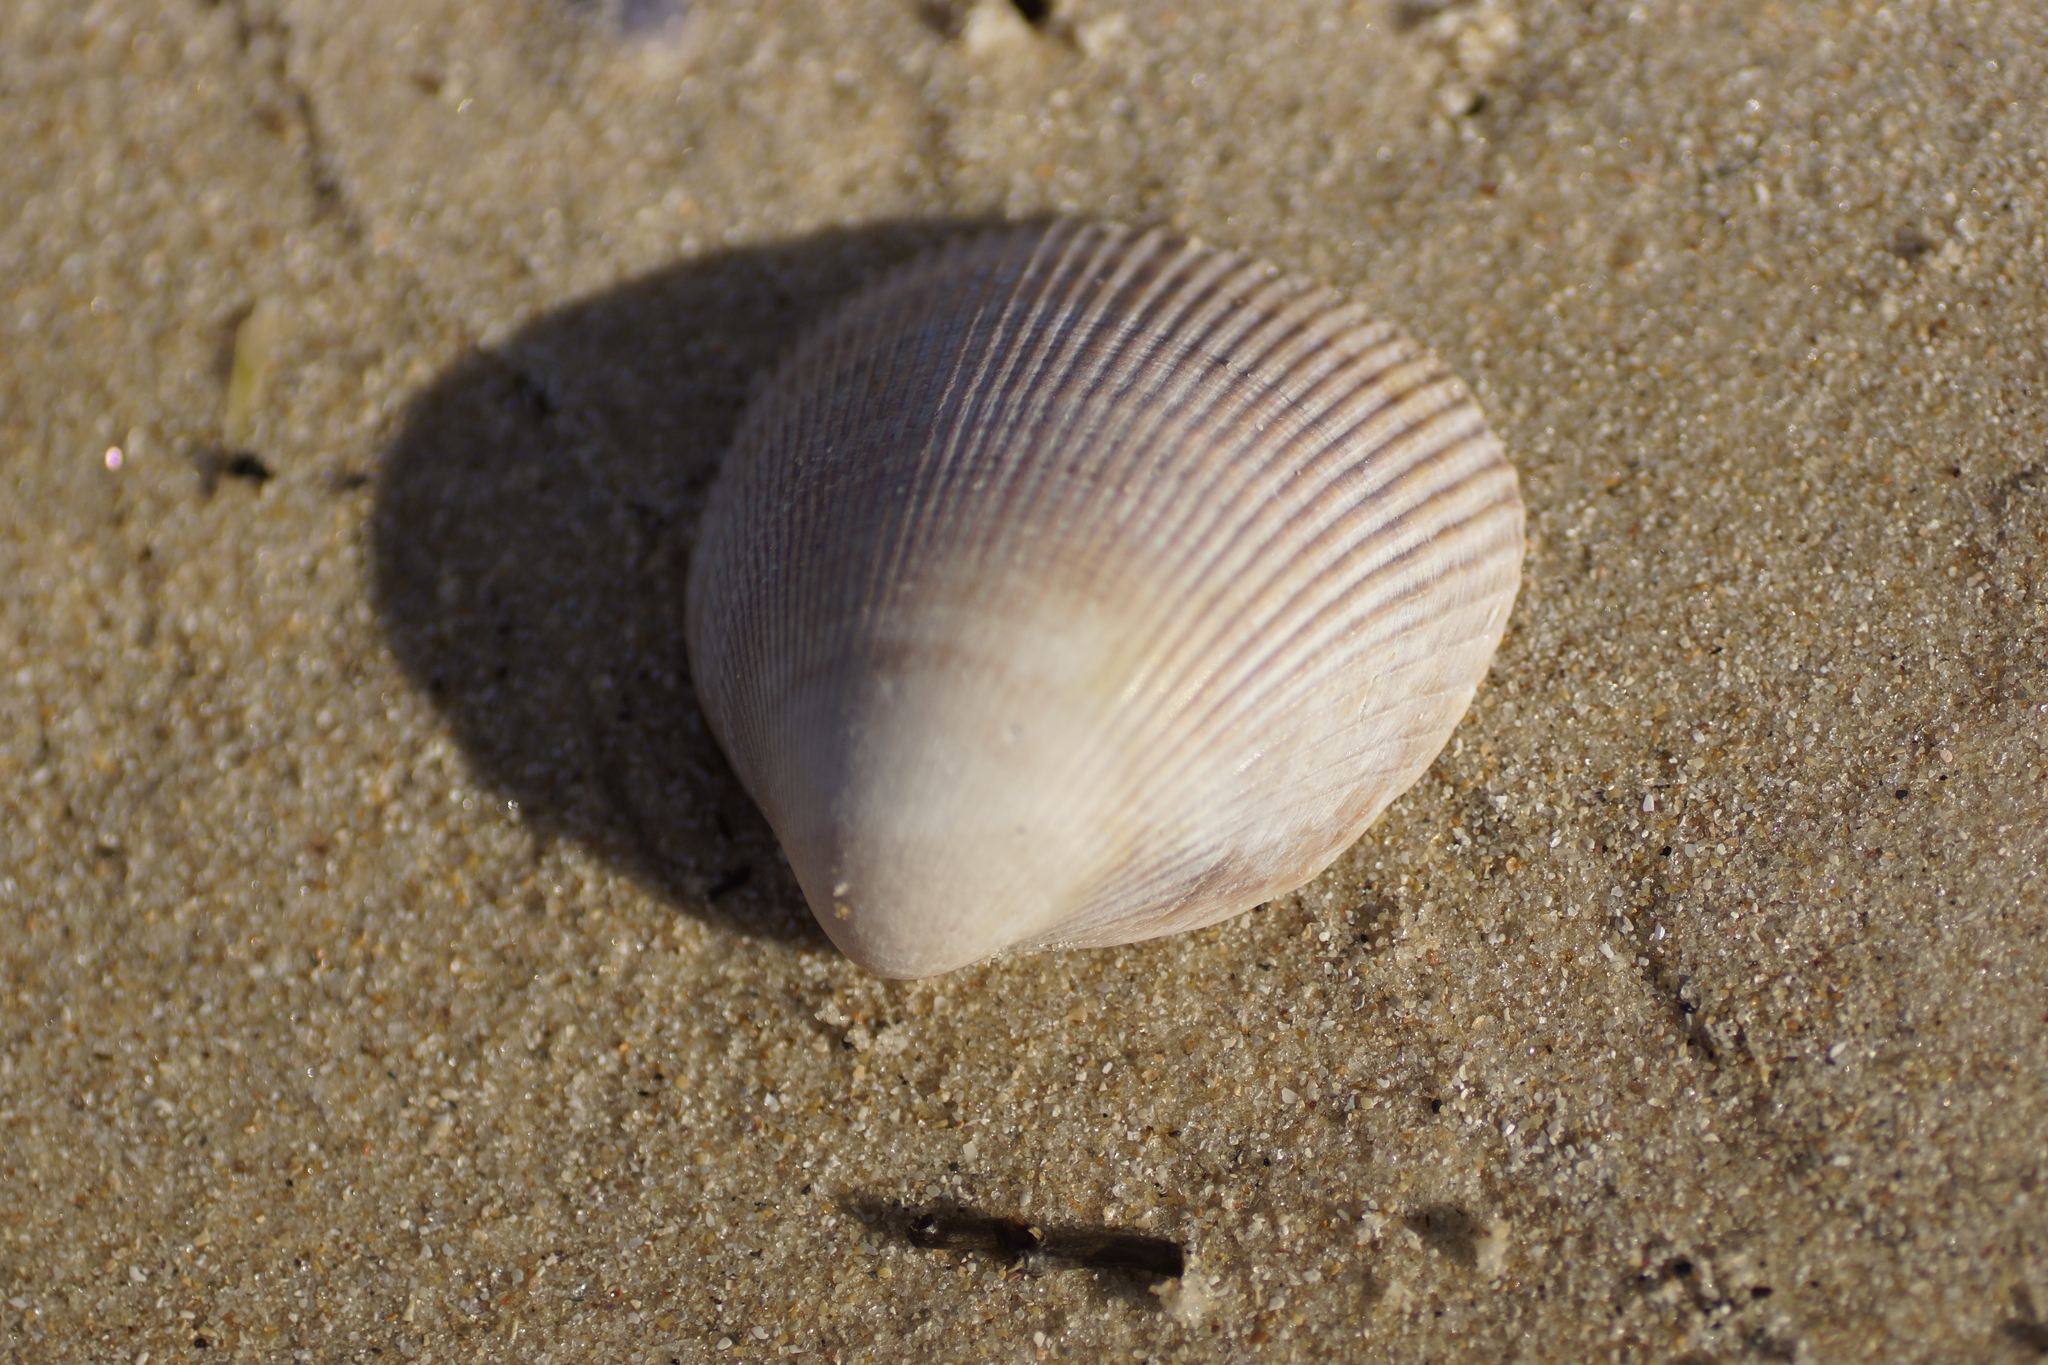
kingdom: Animalia
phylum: Mollusca
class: Bivalvia
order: Cardiida
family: Cardiidae
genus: Fulvia
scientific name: Fulvia tenuicostata
